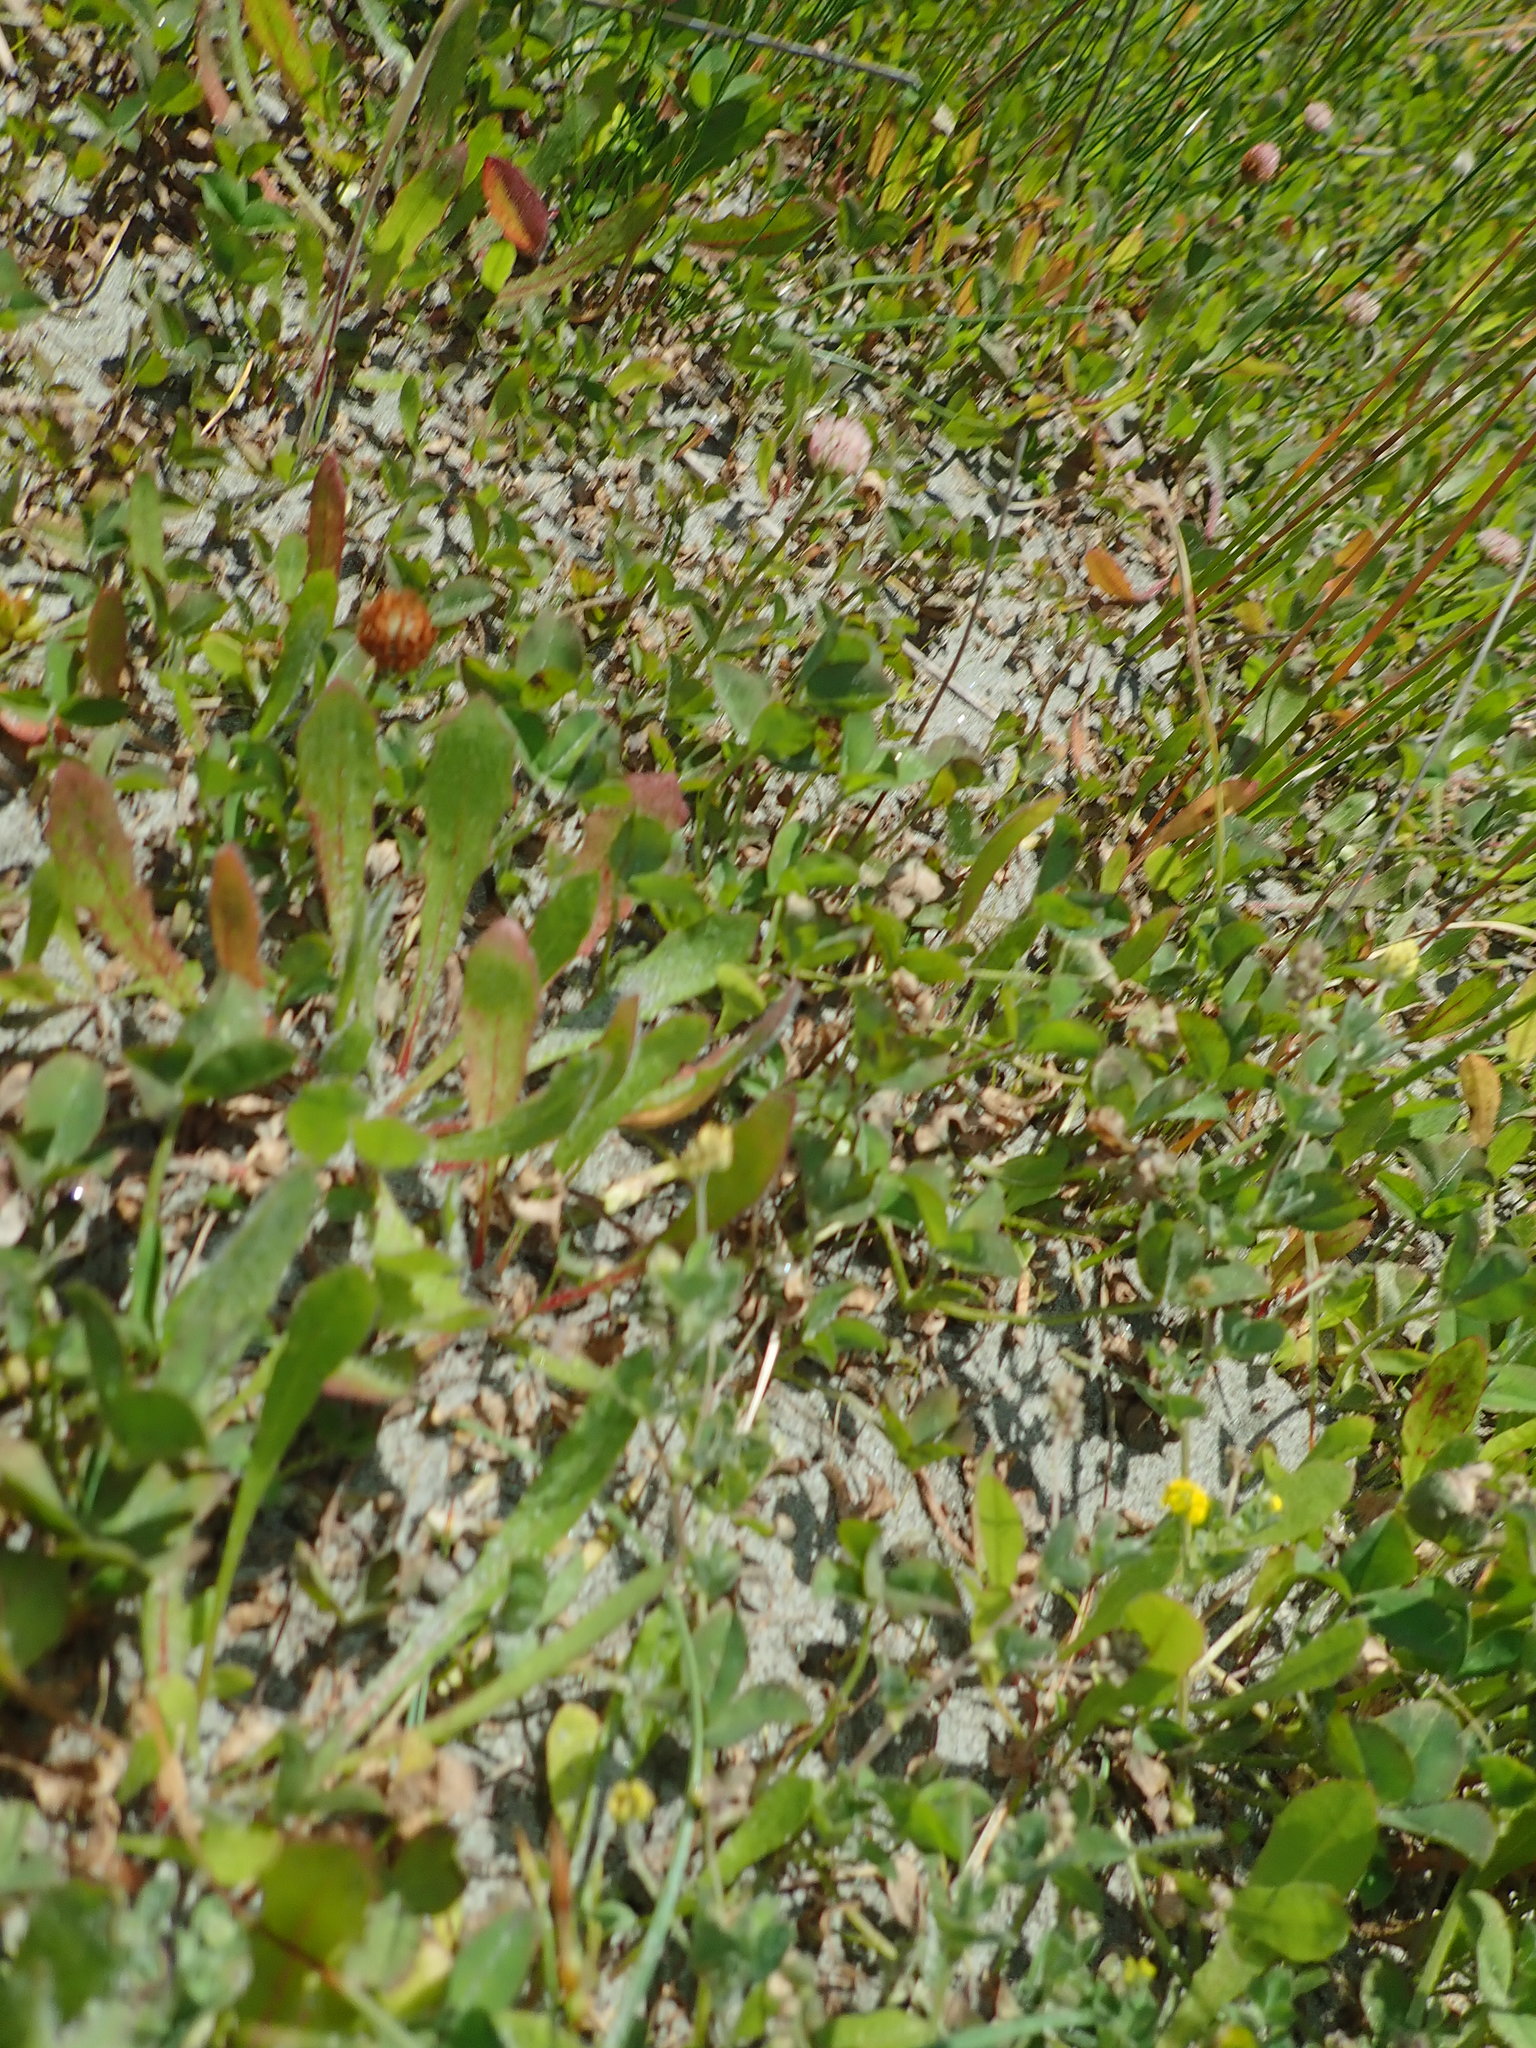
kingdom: Plantae
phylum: Tracheophyta
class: Magnoliopsida
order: Fabales
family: Fabaceae
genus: Trifolium
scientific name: Trifolium fragiferum
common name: Strawberry clover
